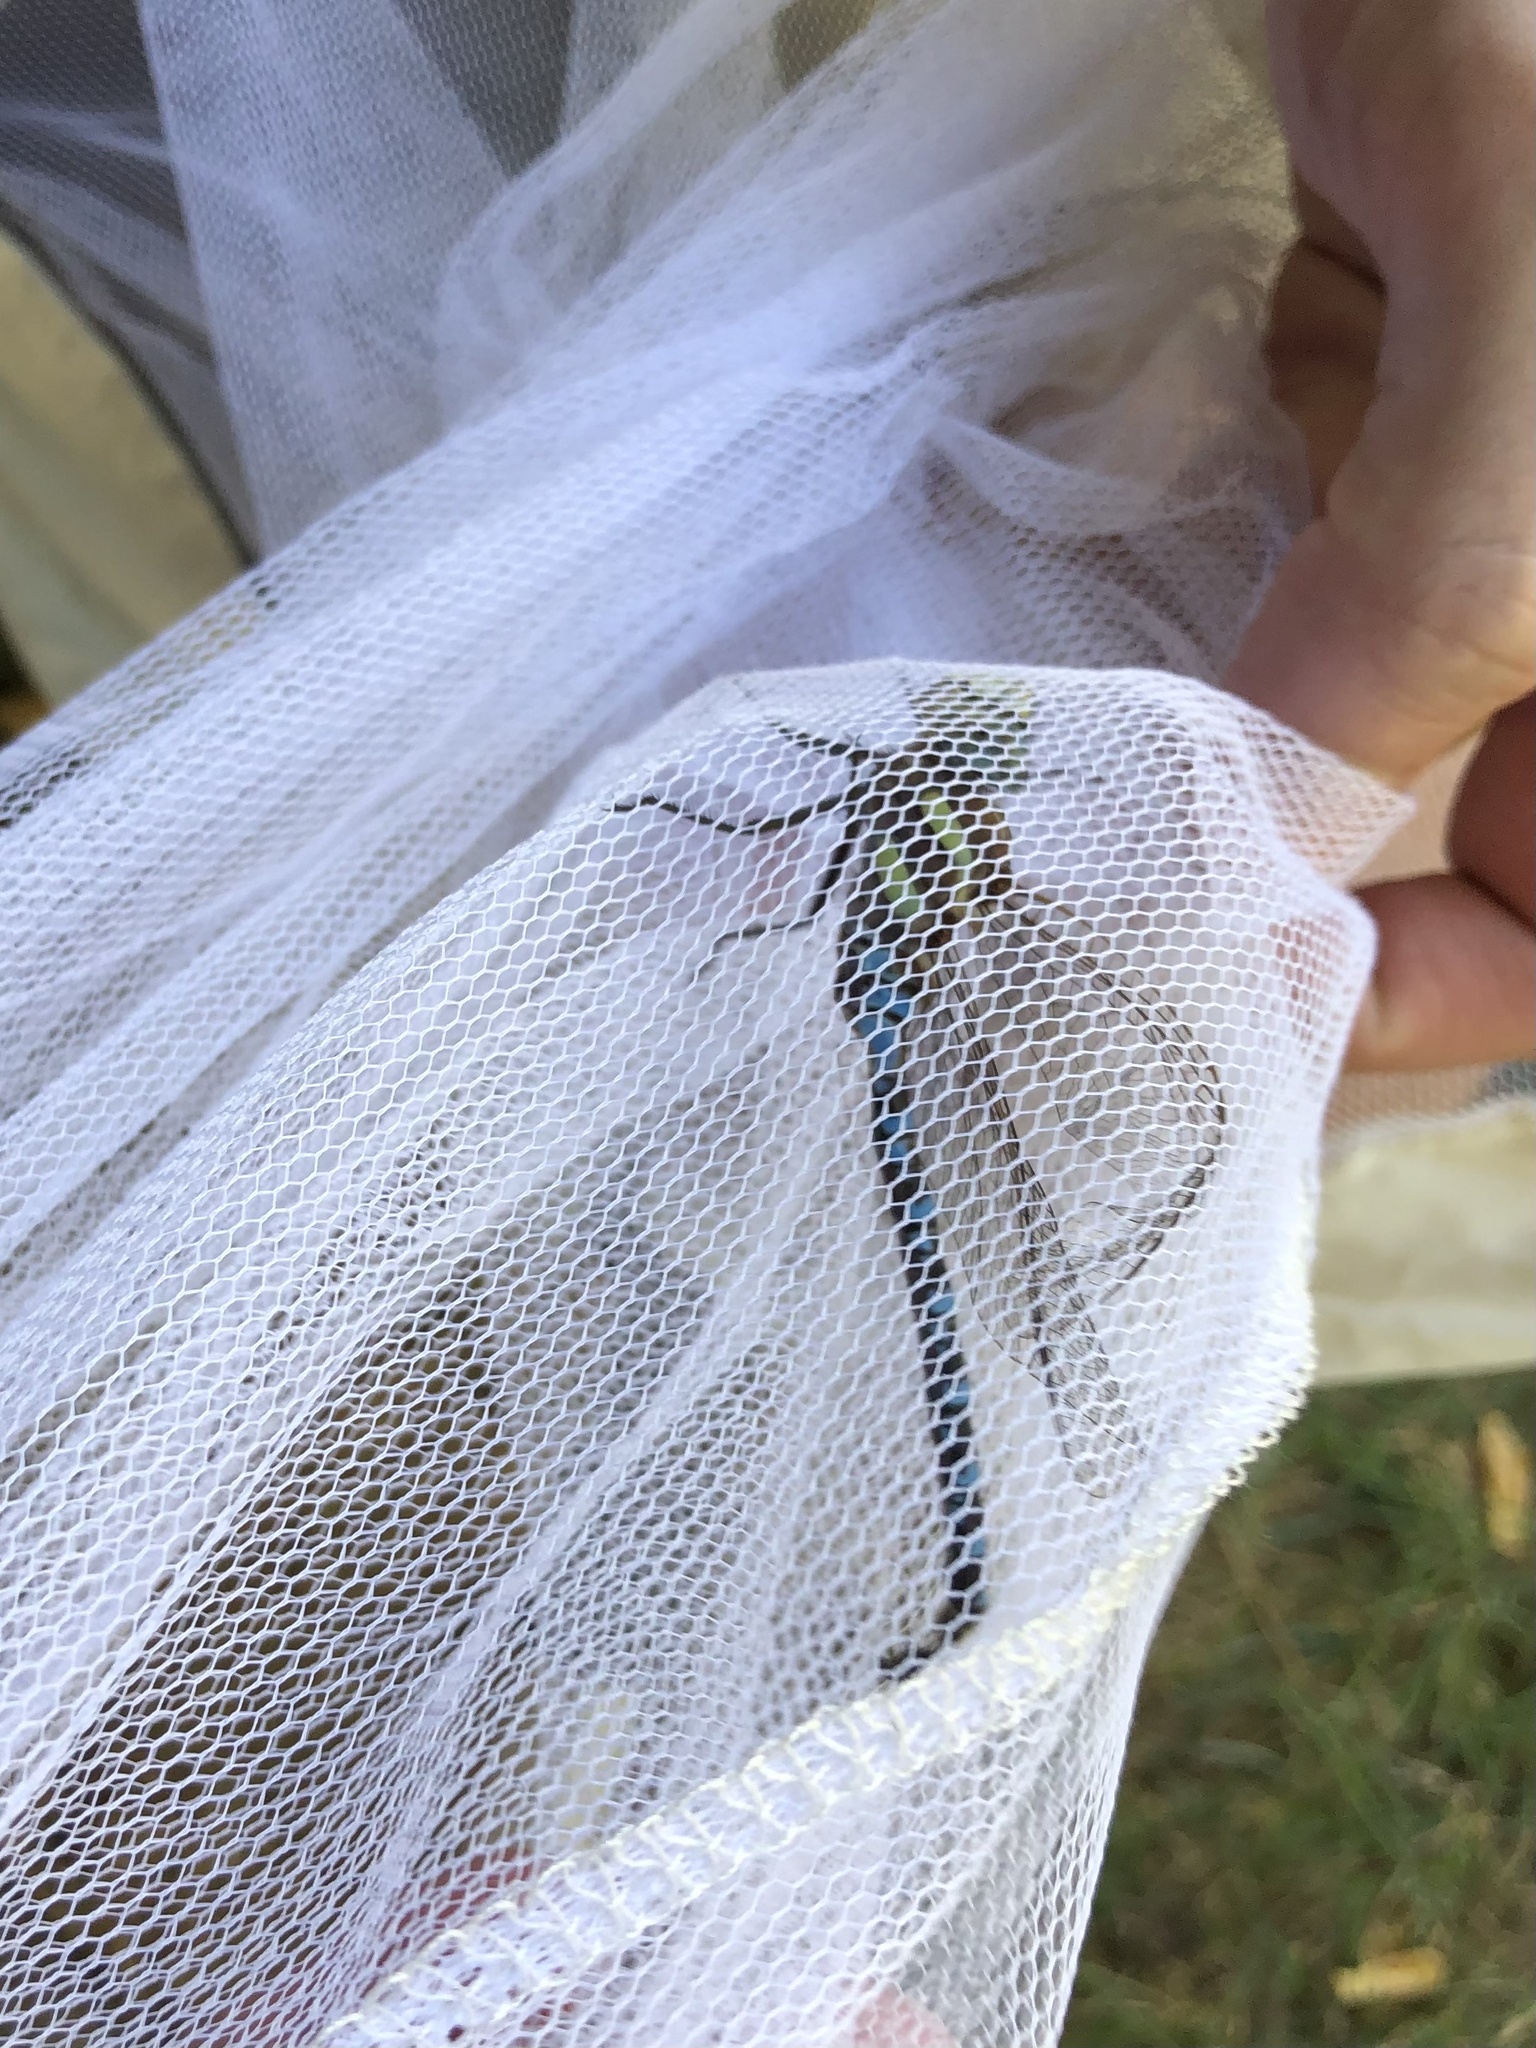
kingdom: Animalia
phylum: Arthropoda
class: Insecta
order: Odonata
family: Aeshnidae
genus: Aeshna
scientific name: Aeshna persephone
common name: Persephone's darner
